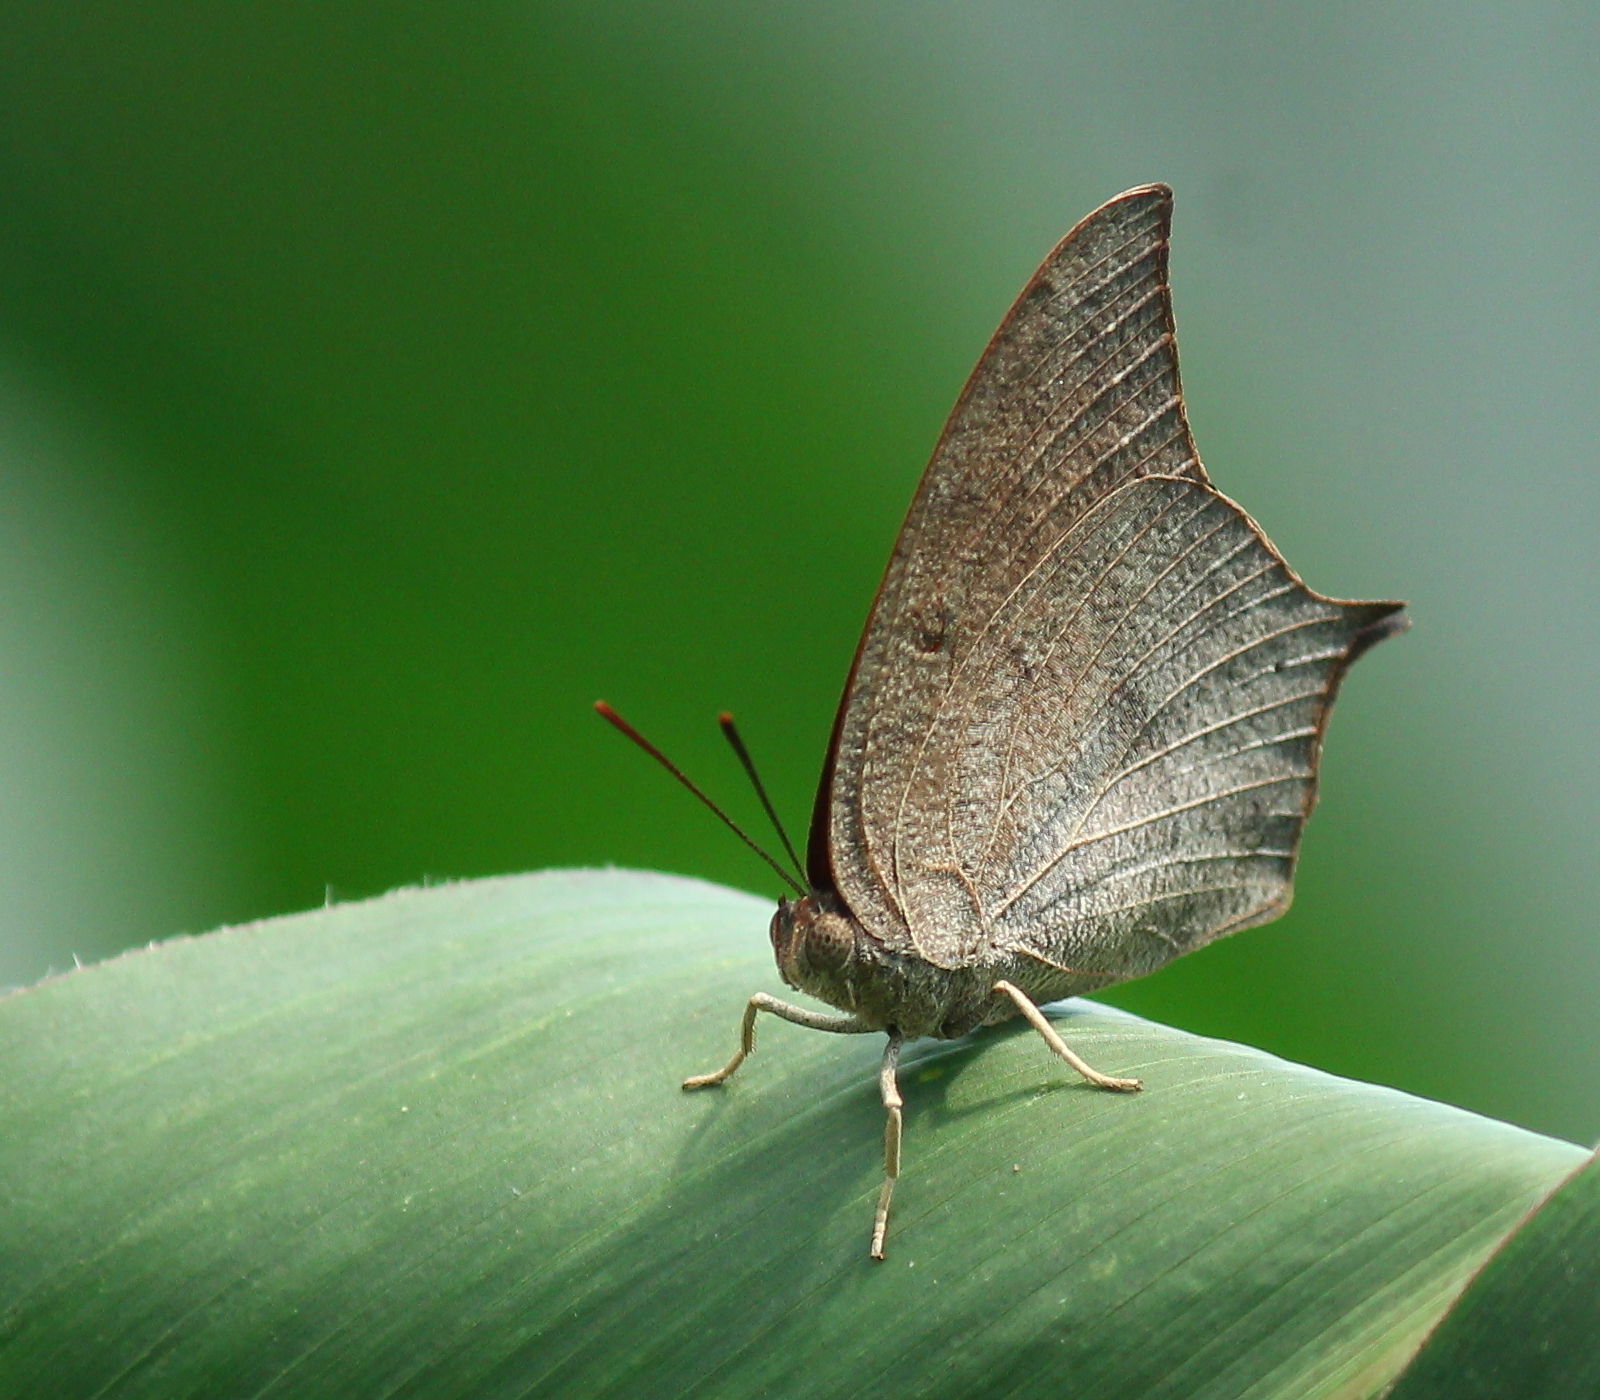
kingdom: Animalia
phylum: Arthropoda
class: Insecta
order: Lepidoptera
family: Nymphalidae
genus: Anaea
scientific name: Anaea andria
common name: Goatweed leafwing
